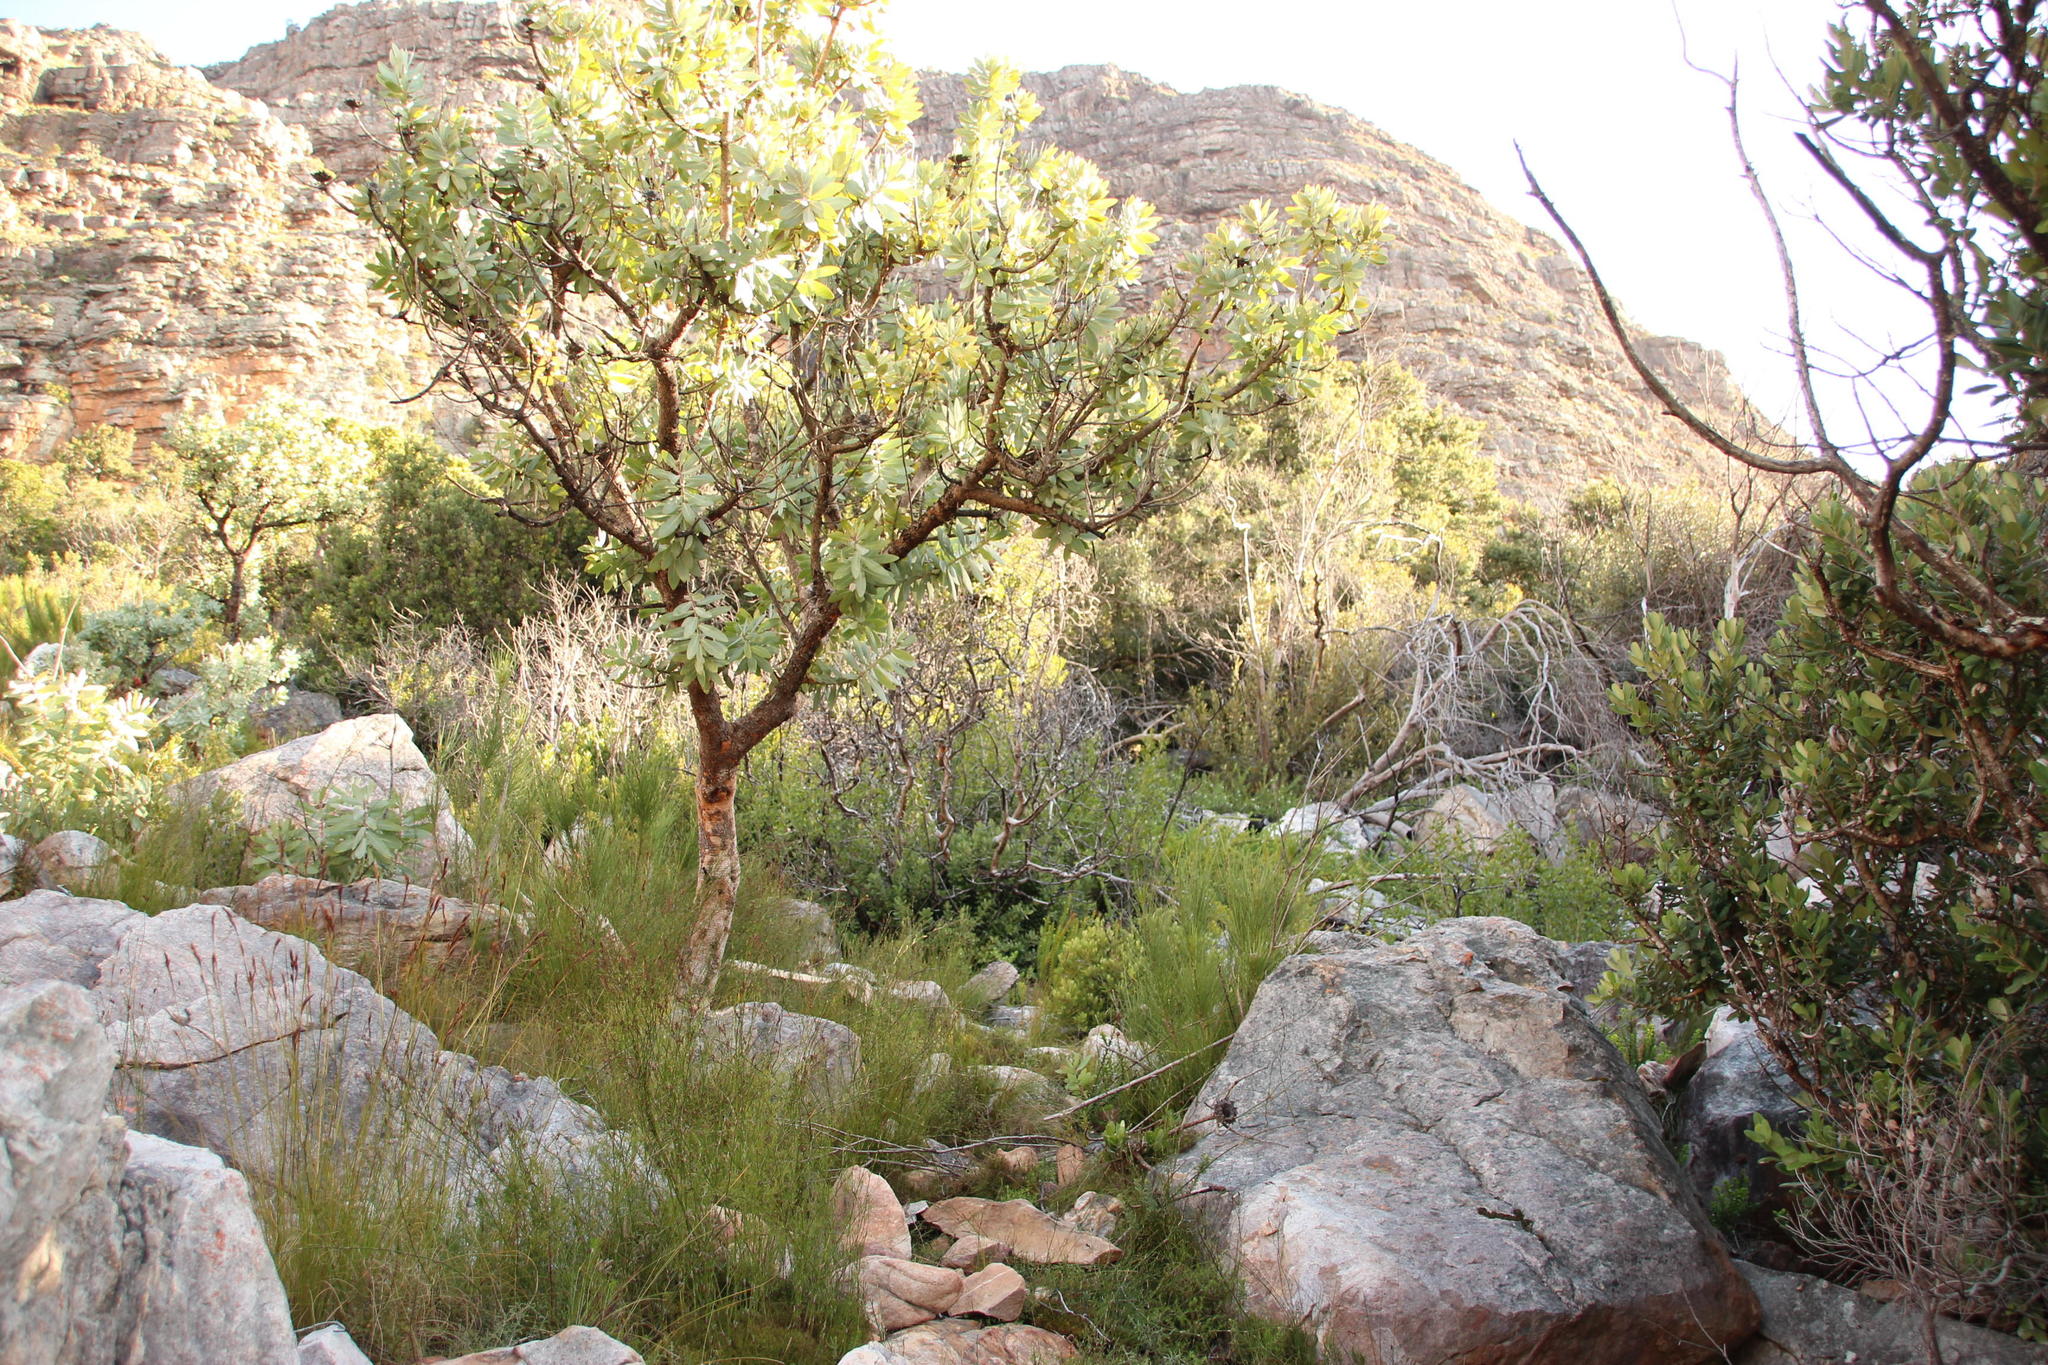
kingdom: Plantae
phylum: Tracheophyta
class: Magnoliopsida
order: Proteales
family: Proteaceae
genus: Protea
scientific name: Protea nitida
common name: Tree protea
